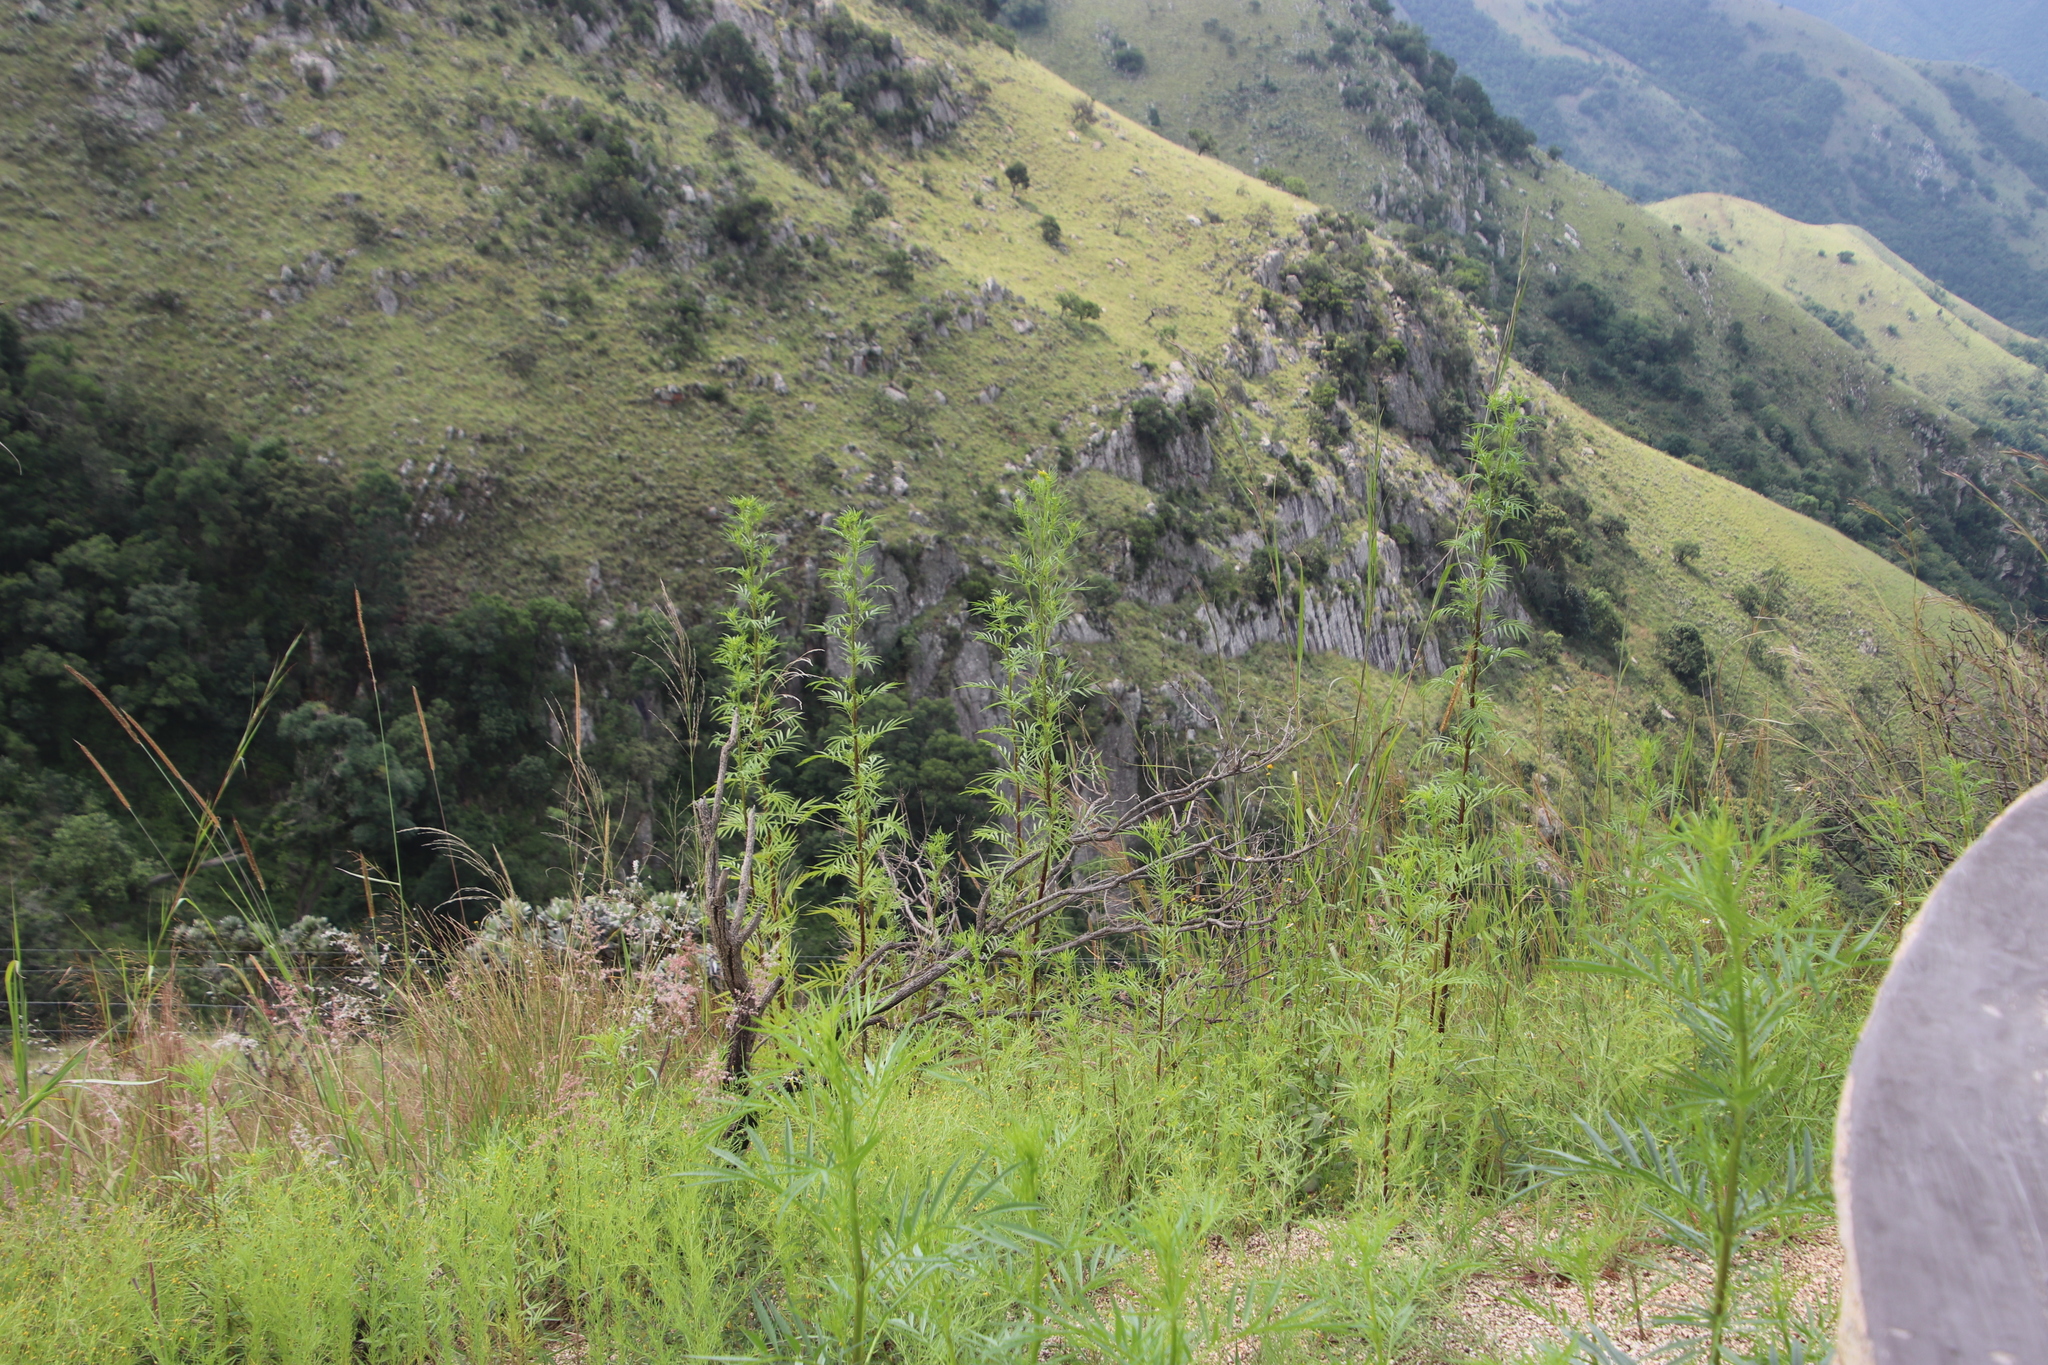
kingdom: Plantae
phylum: Tracheophyta
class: Magnoliopsida
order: Asterales
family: Asteraceae
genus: Tagetes
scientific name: Tagetes minuta
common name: Muster john henry
